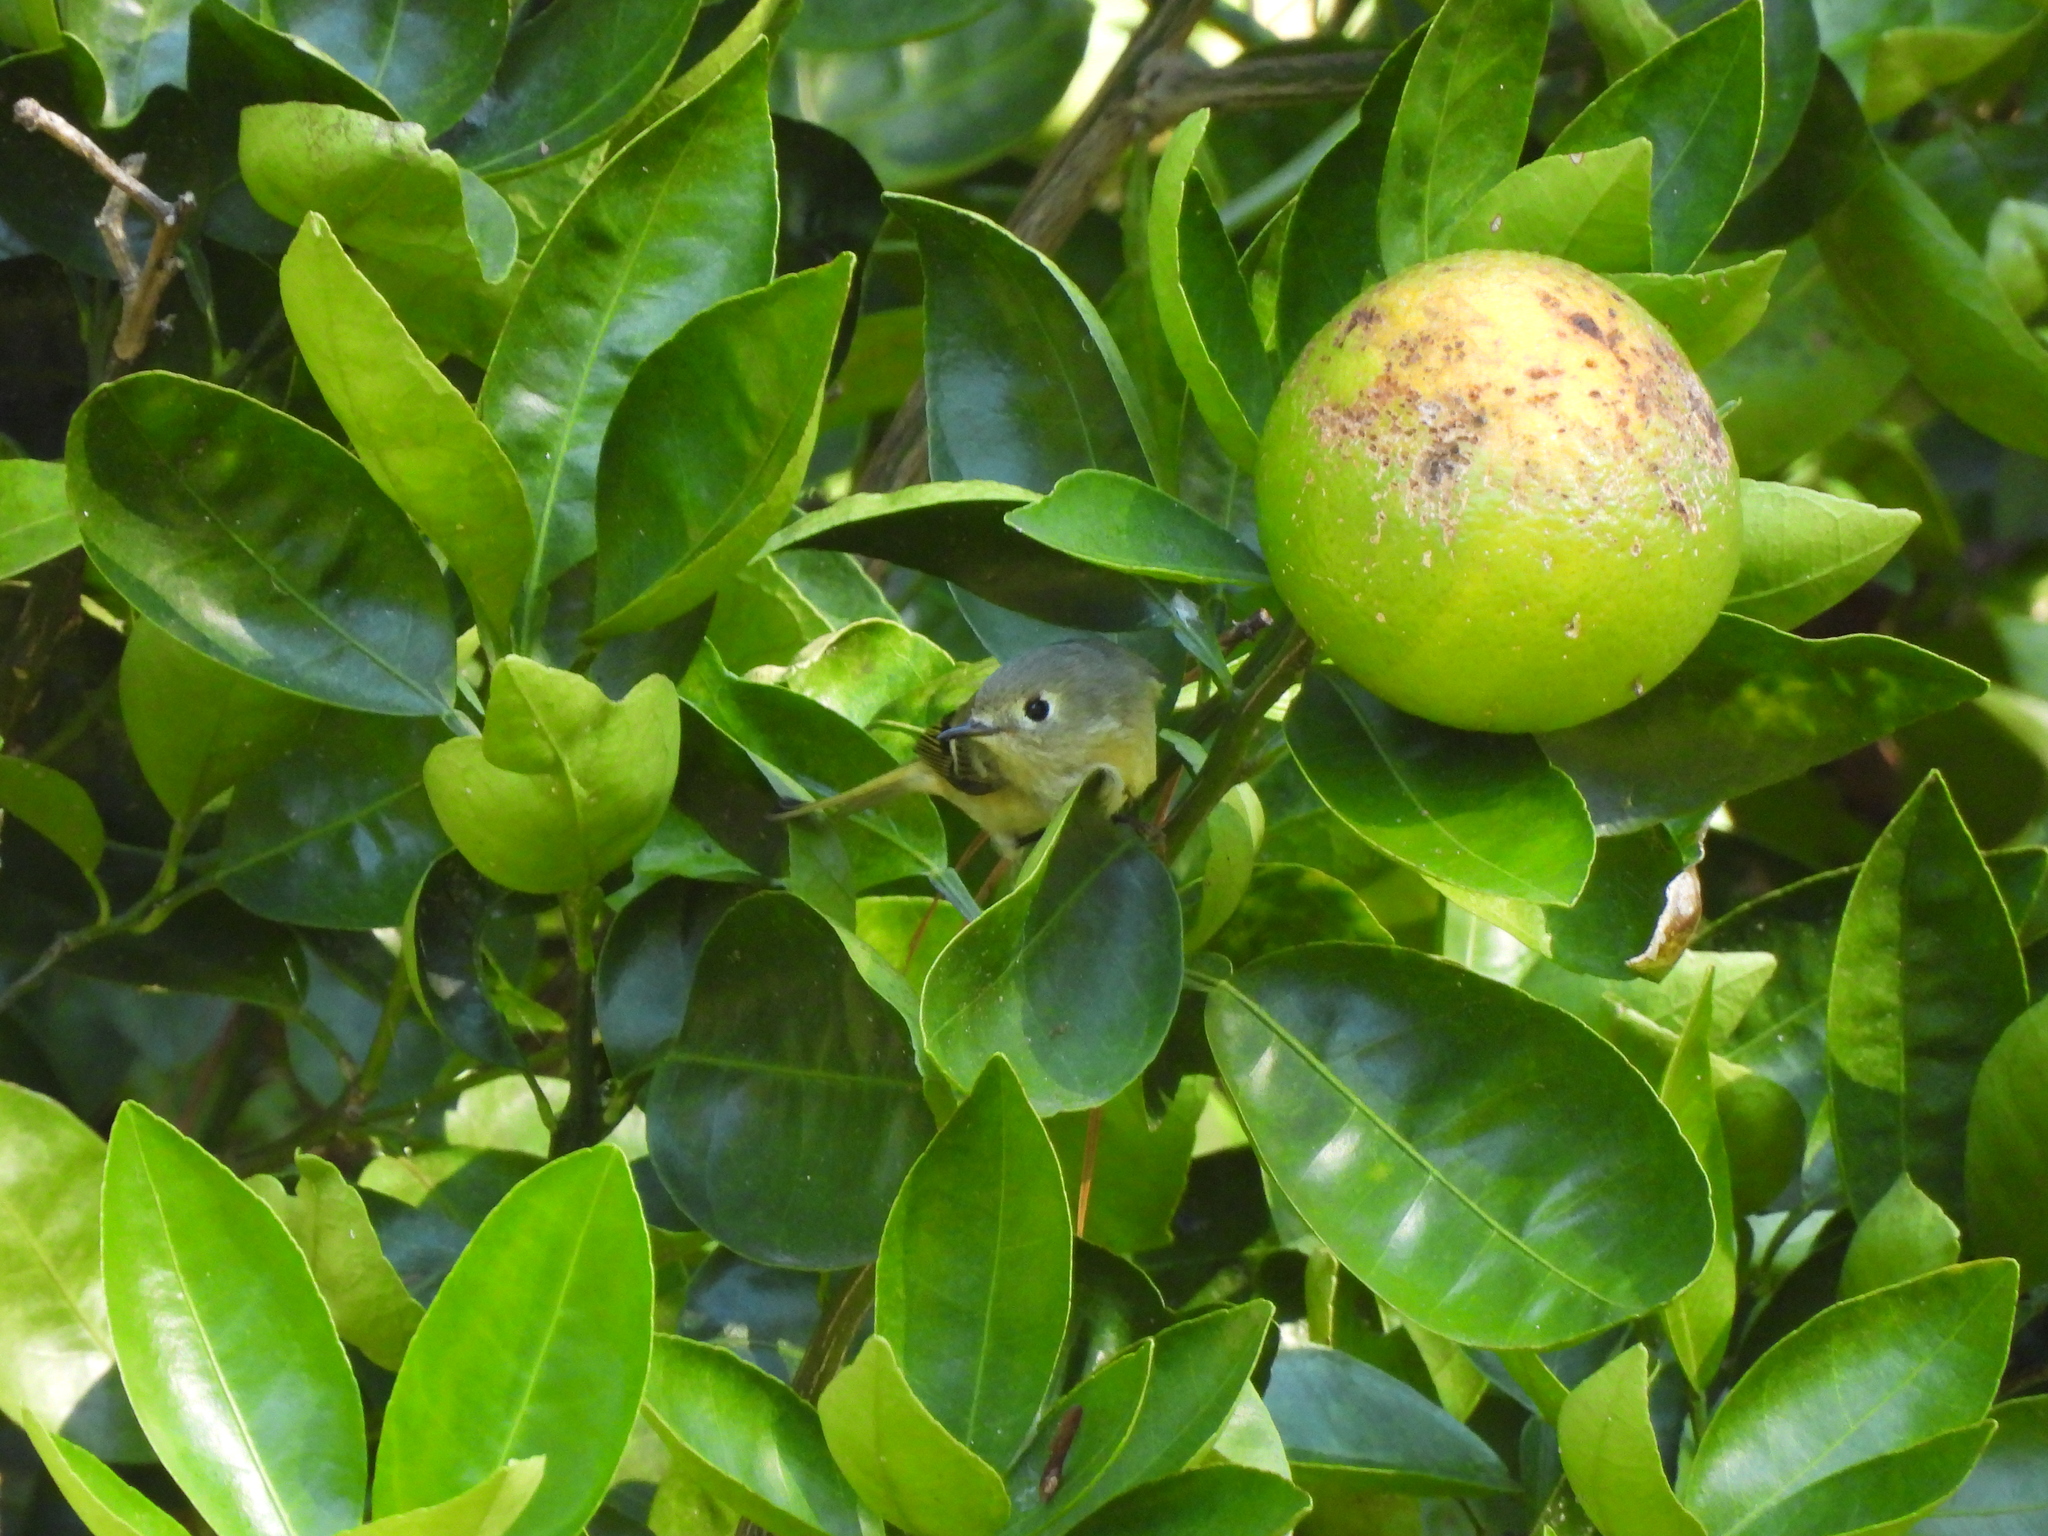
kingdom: Animalia
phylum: Chordata
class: Aves
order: Passeriformes
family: Regulidae
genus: Regulus
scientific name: Regulus calendula
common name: Ruby-crowned kinglet
